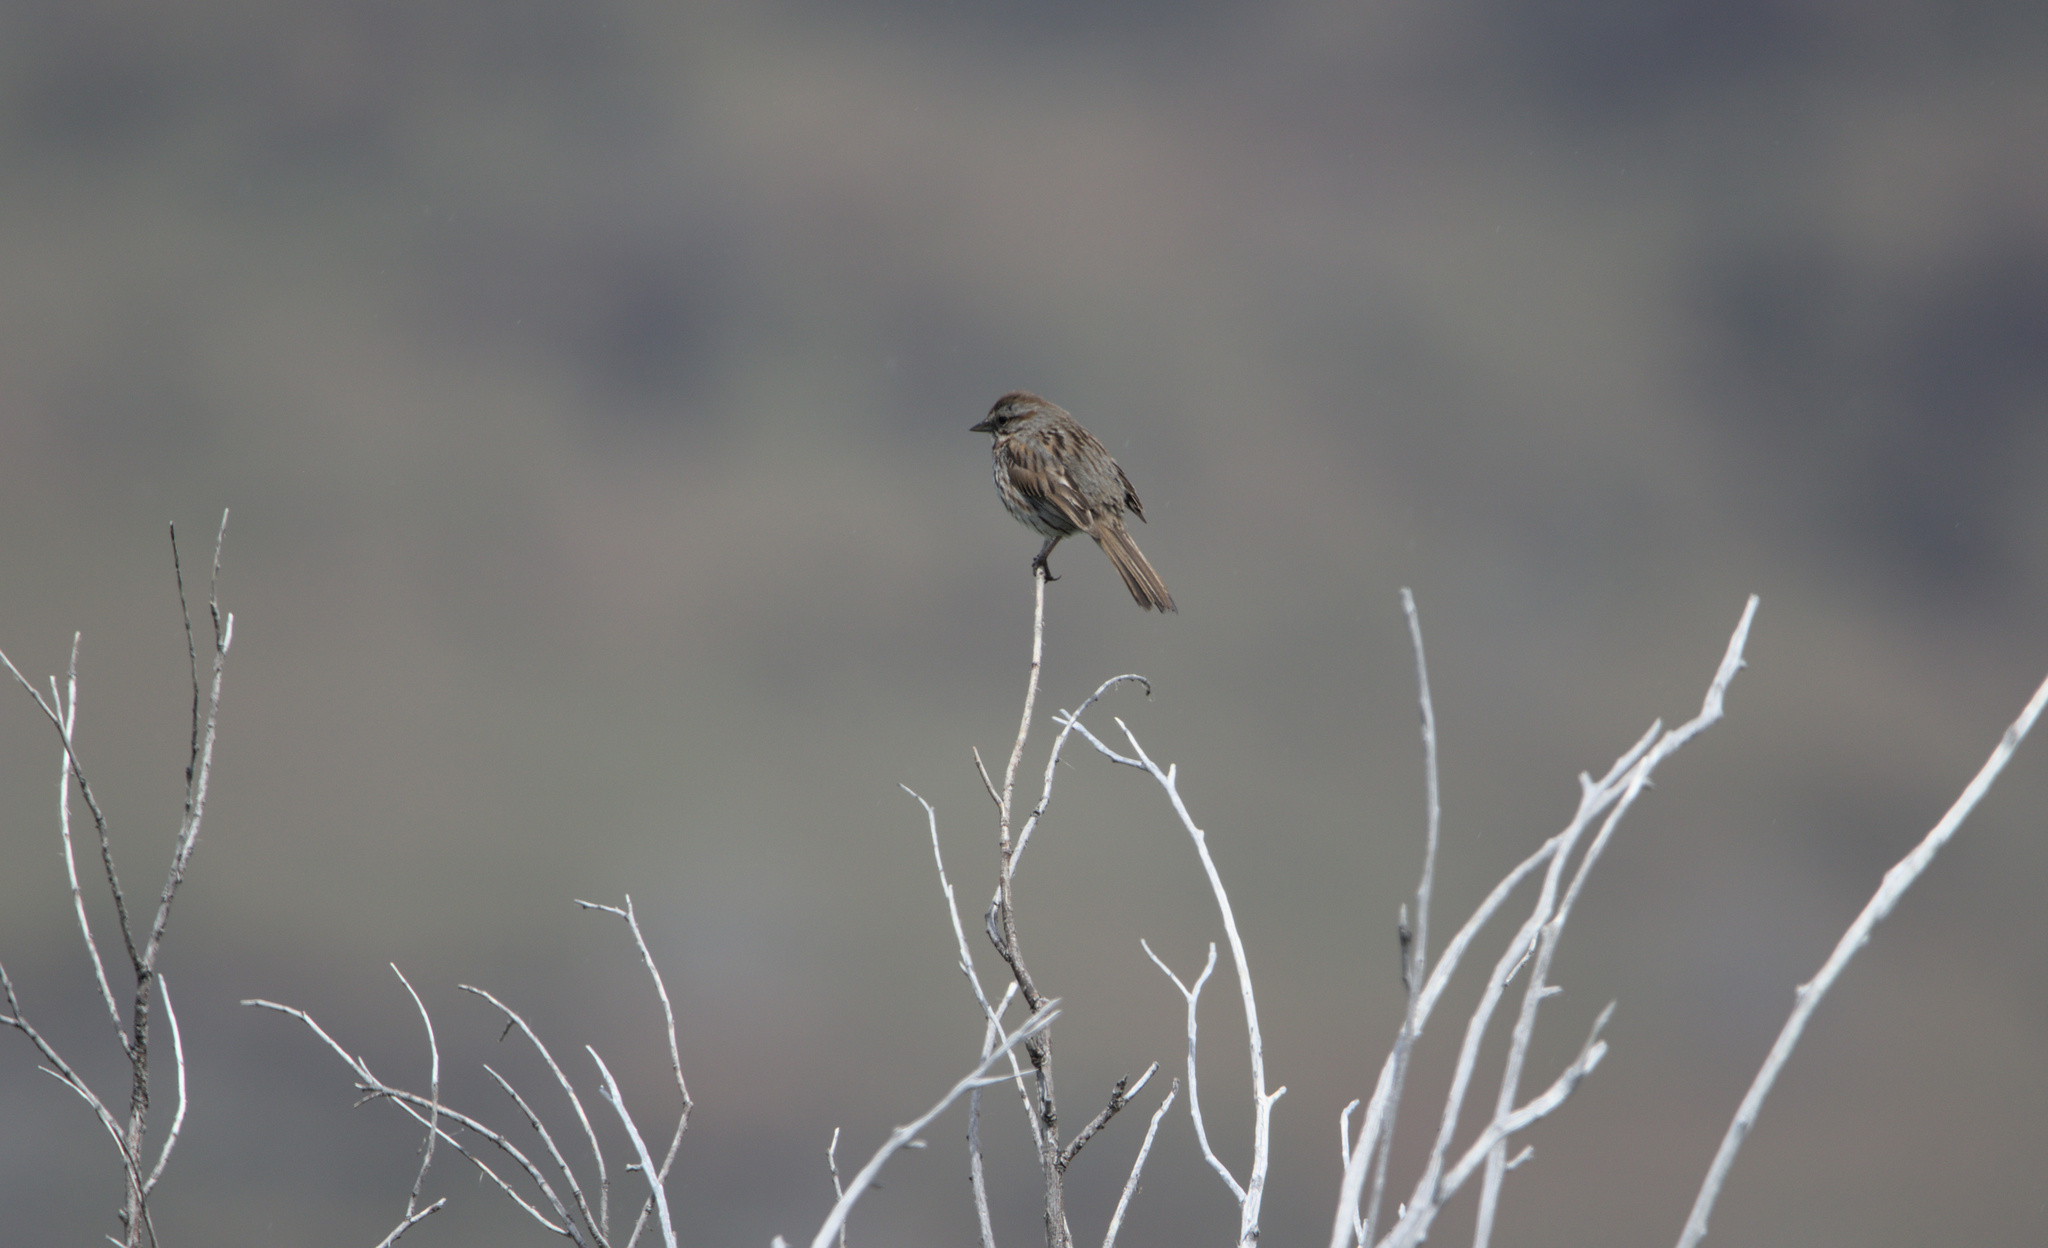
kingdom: Animalia
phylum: Chordata
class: Aves
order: Passeriformes
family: Passerellidae
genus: Melospiza
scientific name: Melospiza melodia
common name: Song sparrow
